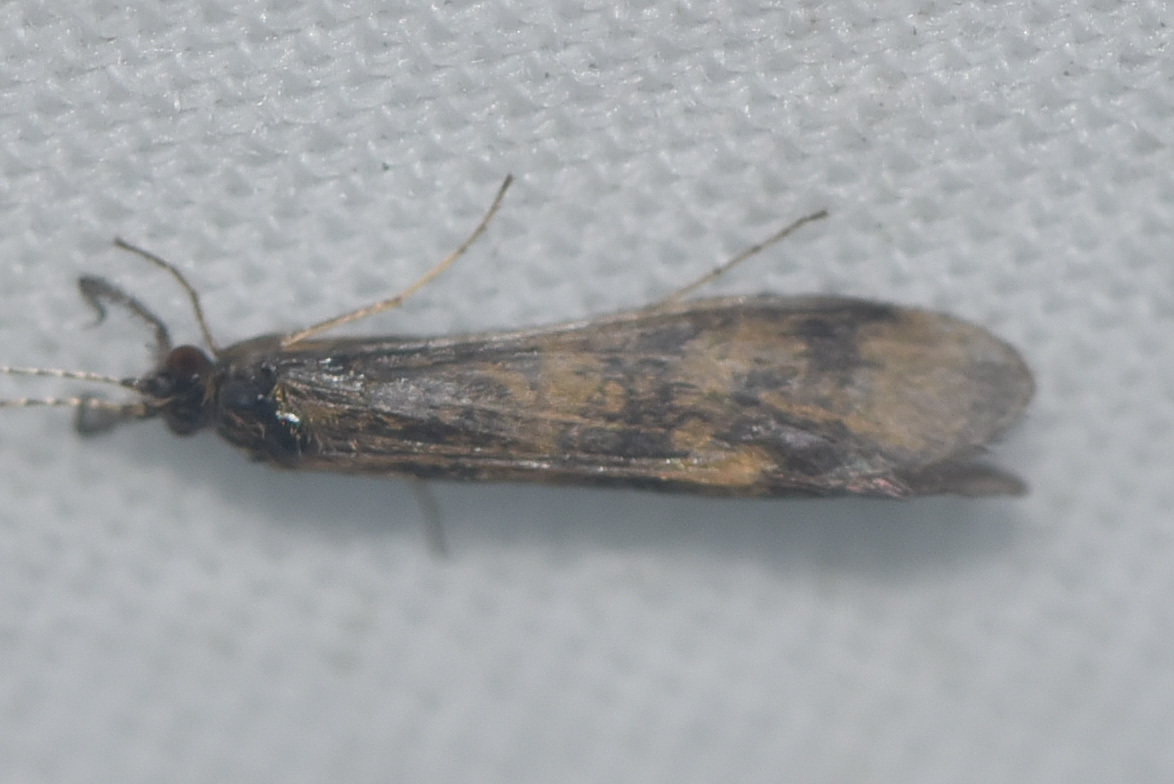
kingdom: Animalia
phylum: Arthropoda
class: Insecta
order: Trichoptera
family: Leptoceridae
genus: Mystacides
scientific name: Mystacides interjectus
